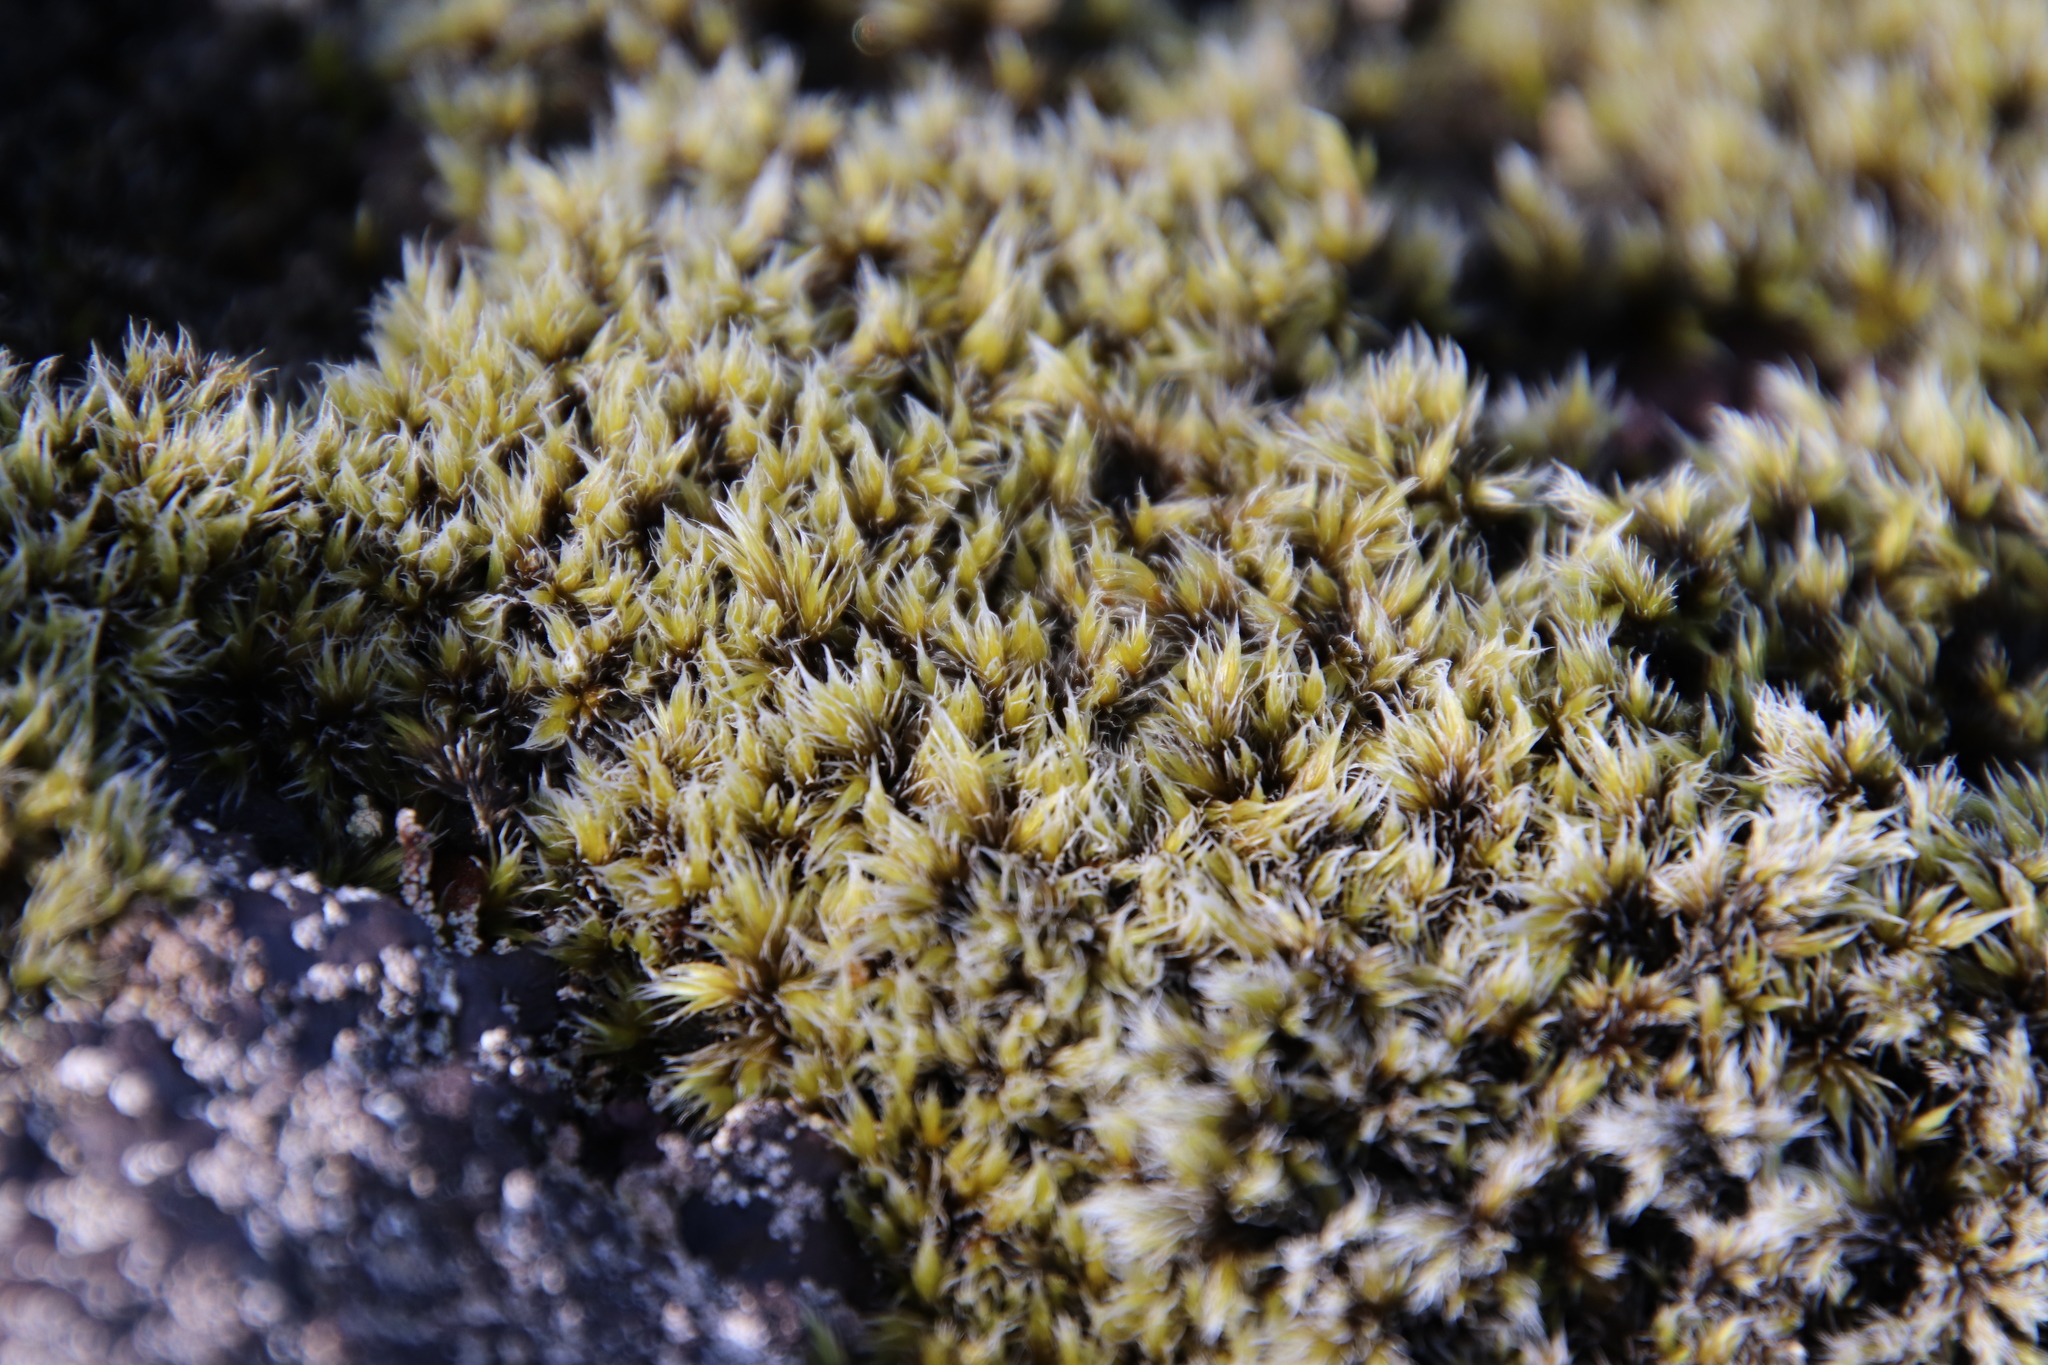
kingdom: Plantae
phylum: Bryophyta
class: Bryopsida
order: Grimmiales
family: Grimmiaceae
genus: Racomitrium
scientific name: Racomitrium lanuginosum
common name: Hoary rock moss
